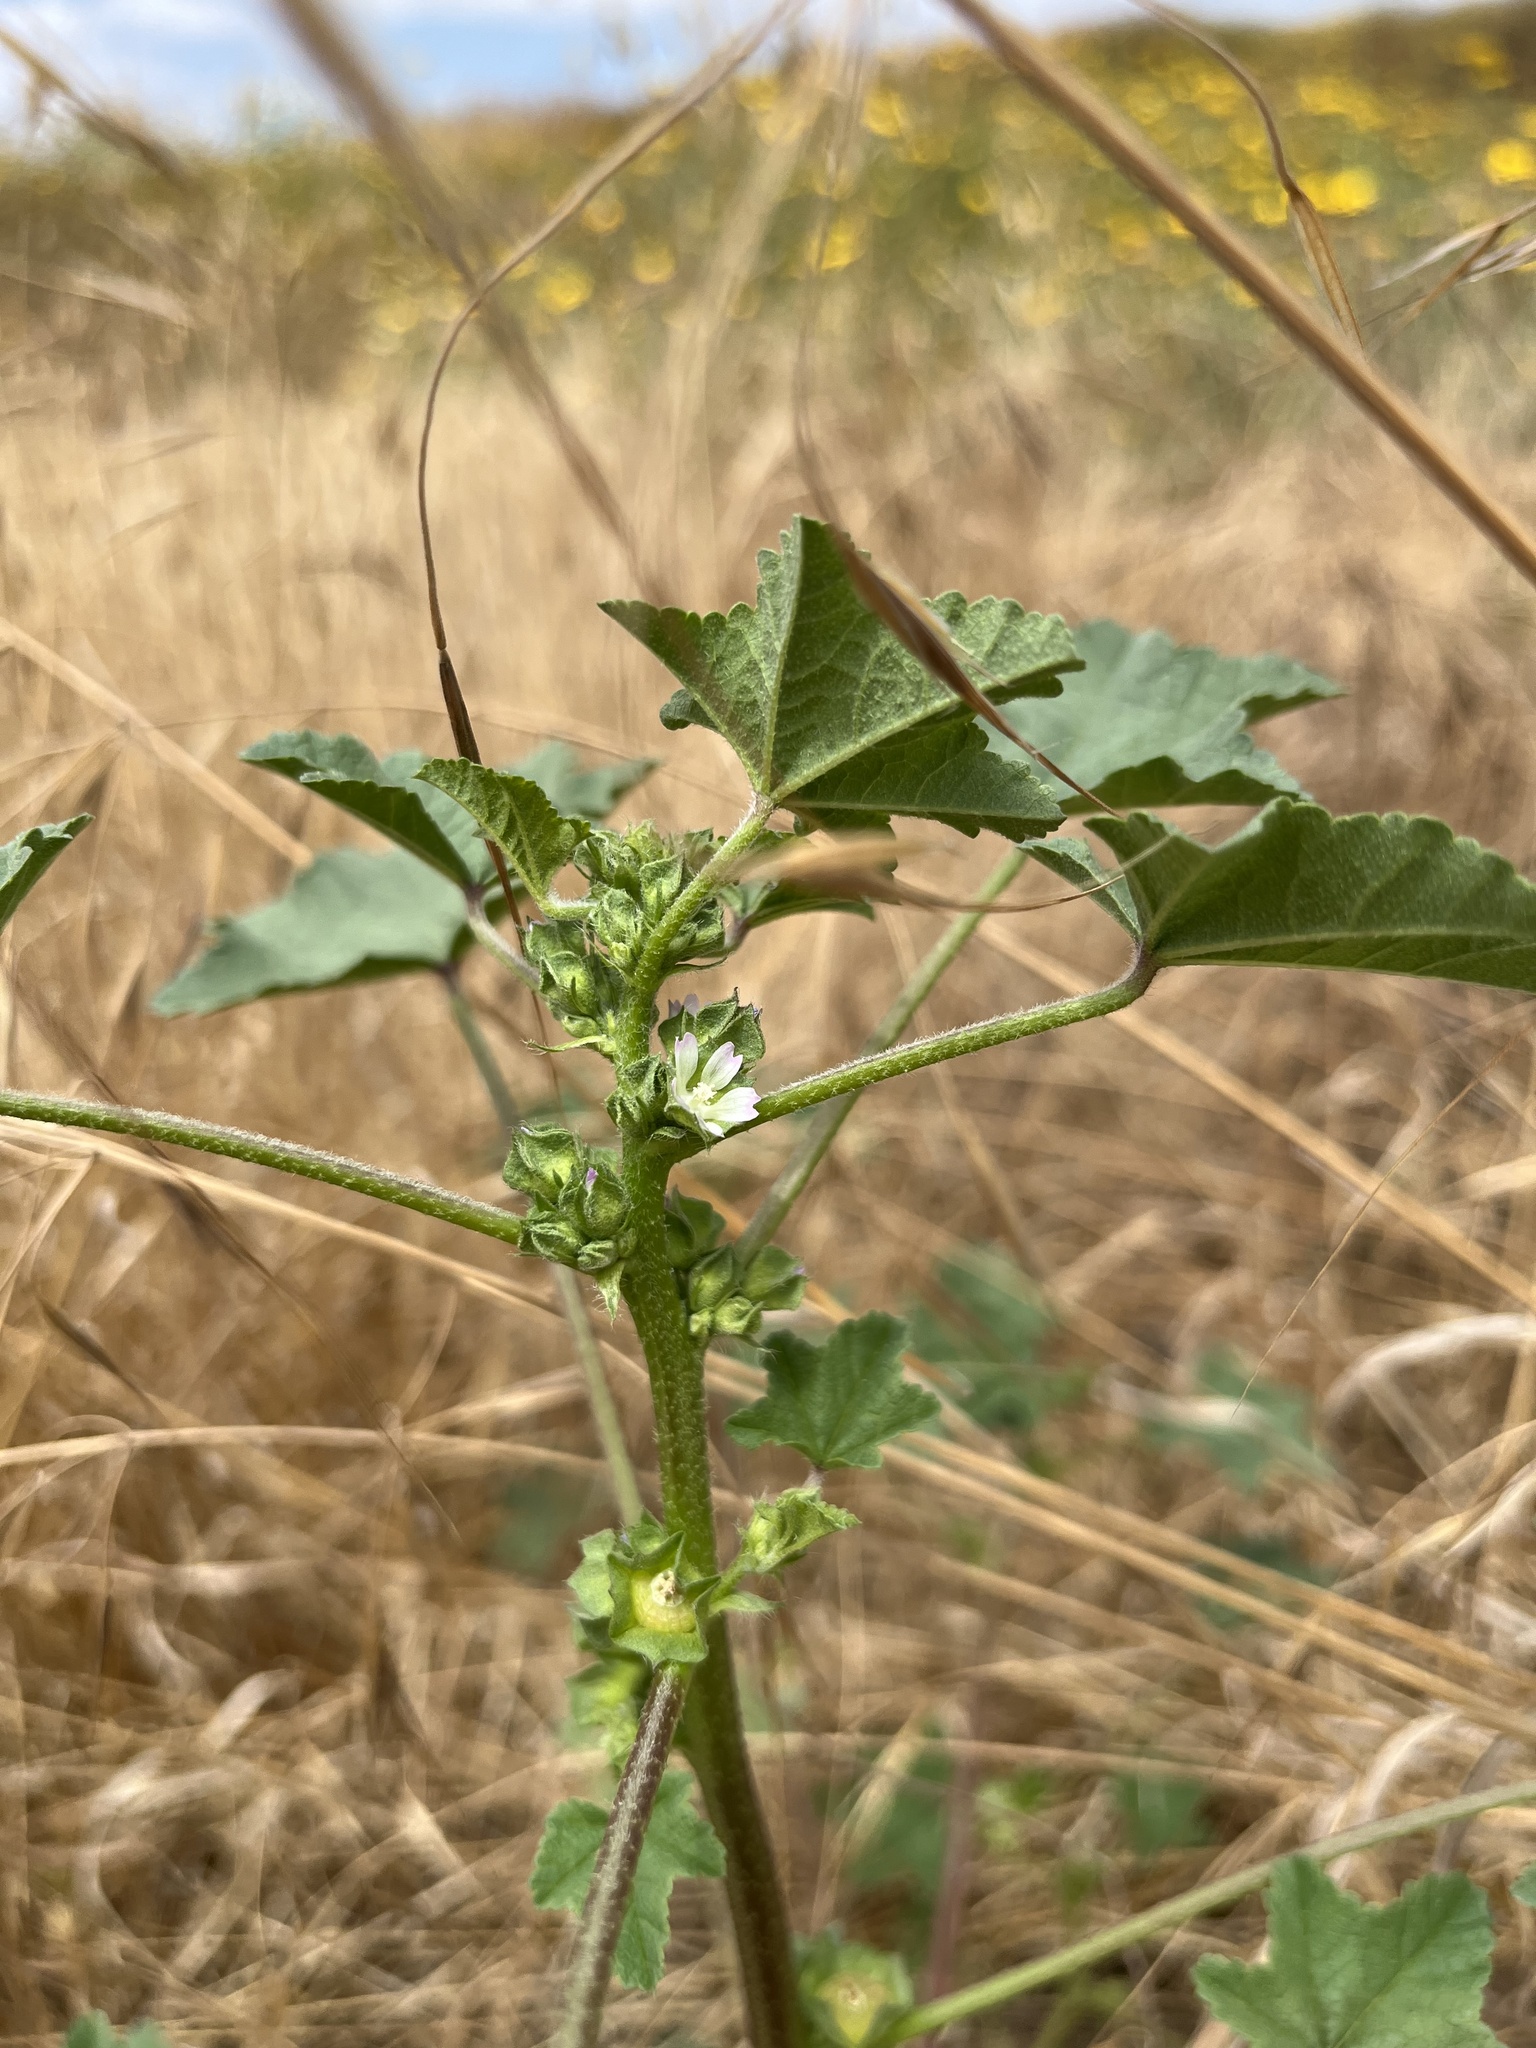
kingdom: Plantae
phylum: Tracheophyta
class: Magnoliopsida
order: Malvales
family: Malvaceae
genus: Malva
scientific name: Malva parviflora
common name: Least mallow
